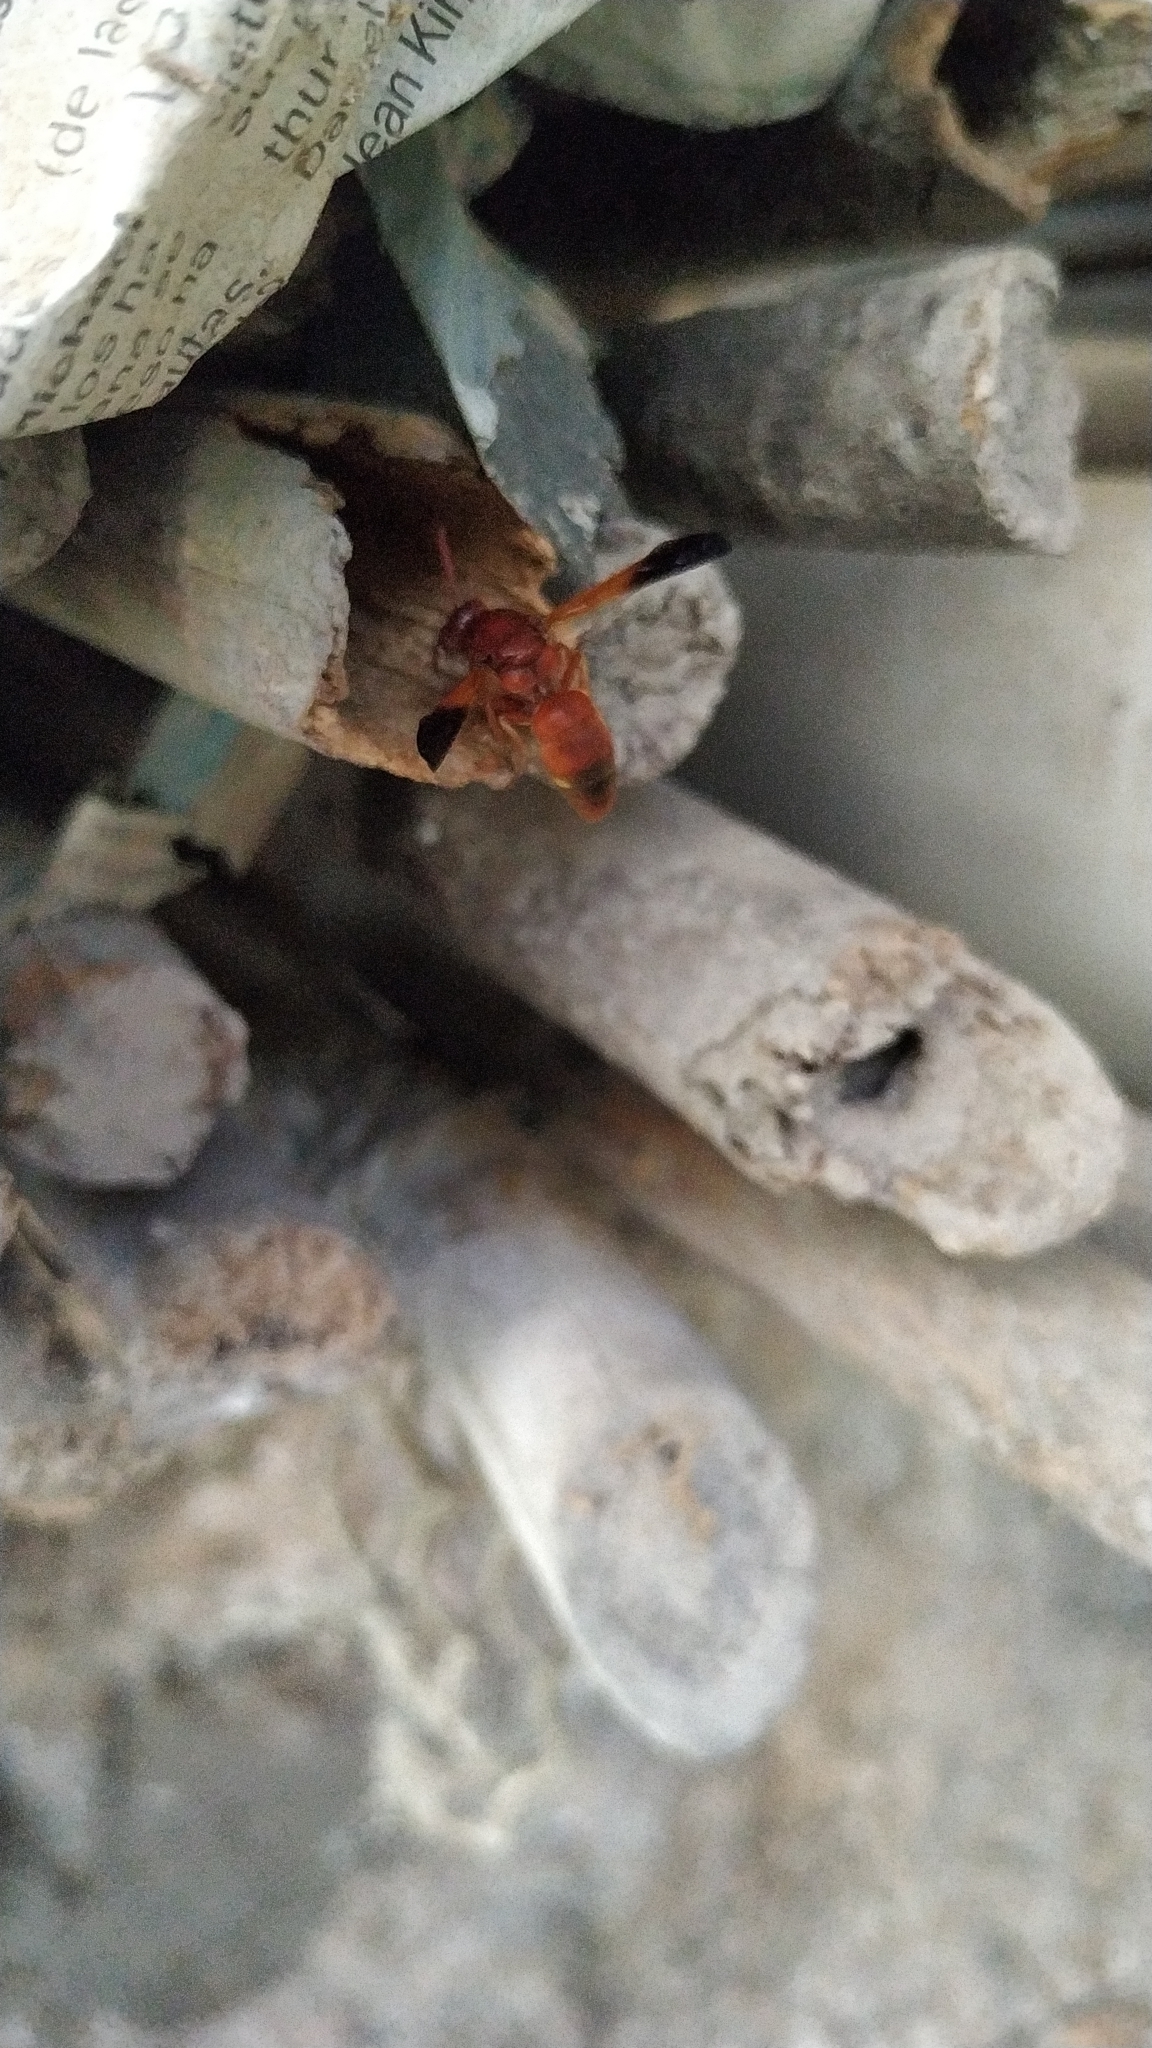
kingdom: Animalia
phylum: Arthropoda
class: Insecta
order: Hymenoptera
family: Eumenidae
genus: Rhynchium
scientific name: Rhynchium oculatum
